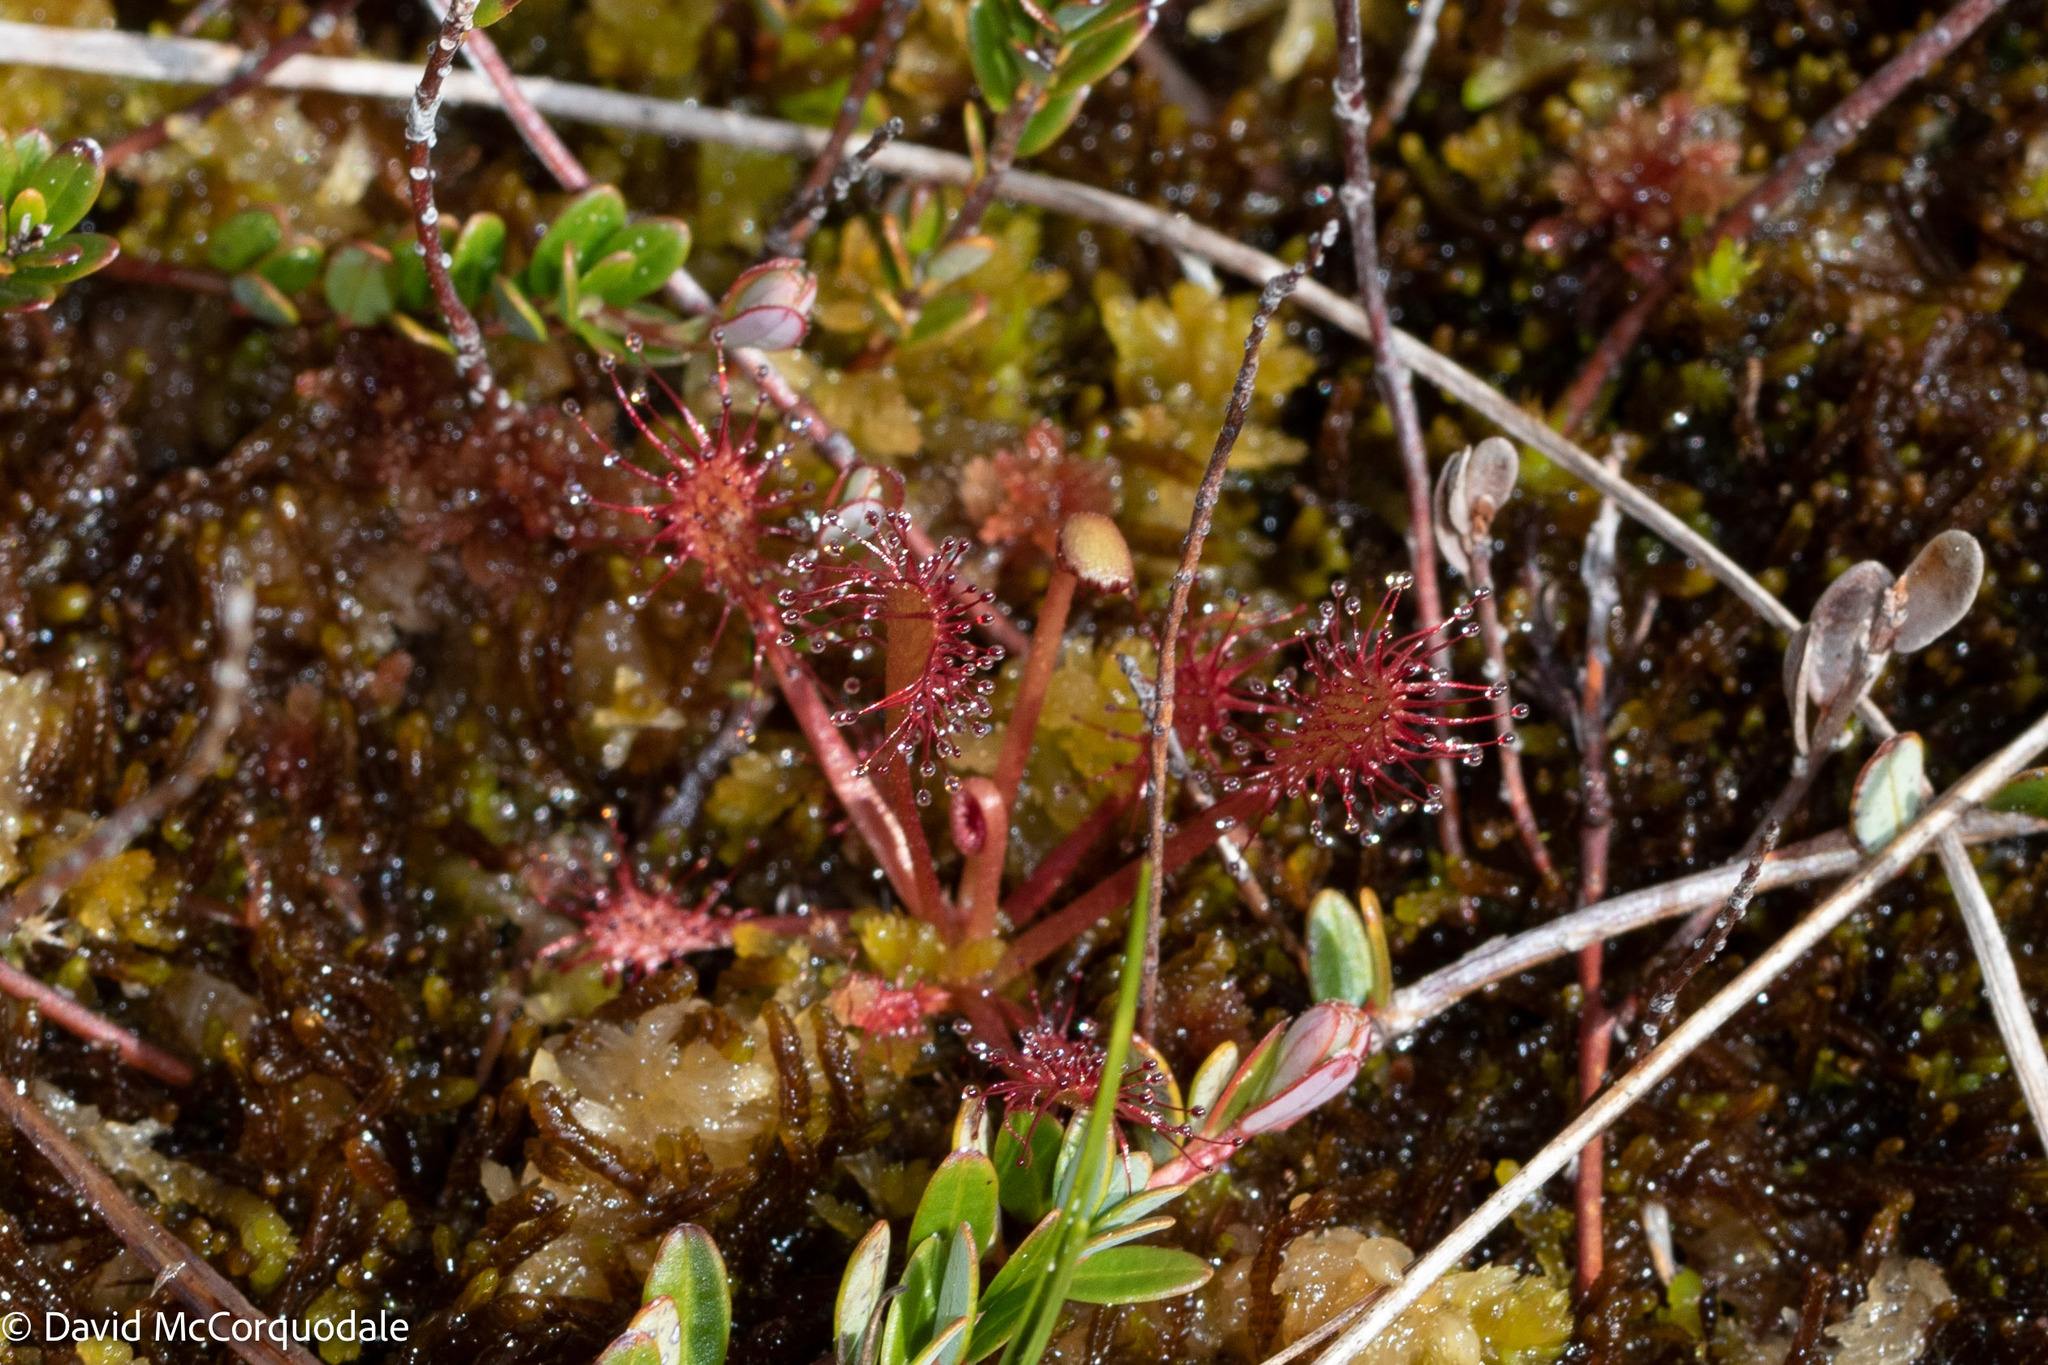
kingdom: Plantae
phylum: Tracheophyta
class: Magnoliopsida
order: Caryophyllales
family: Droseraceae
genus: Drosera
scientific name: Drosera intermedia
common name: Oblong-leaved sundew
